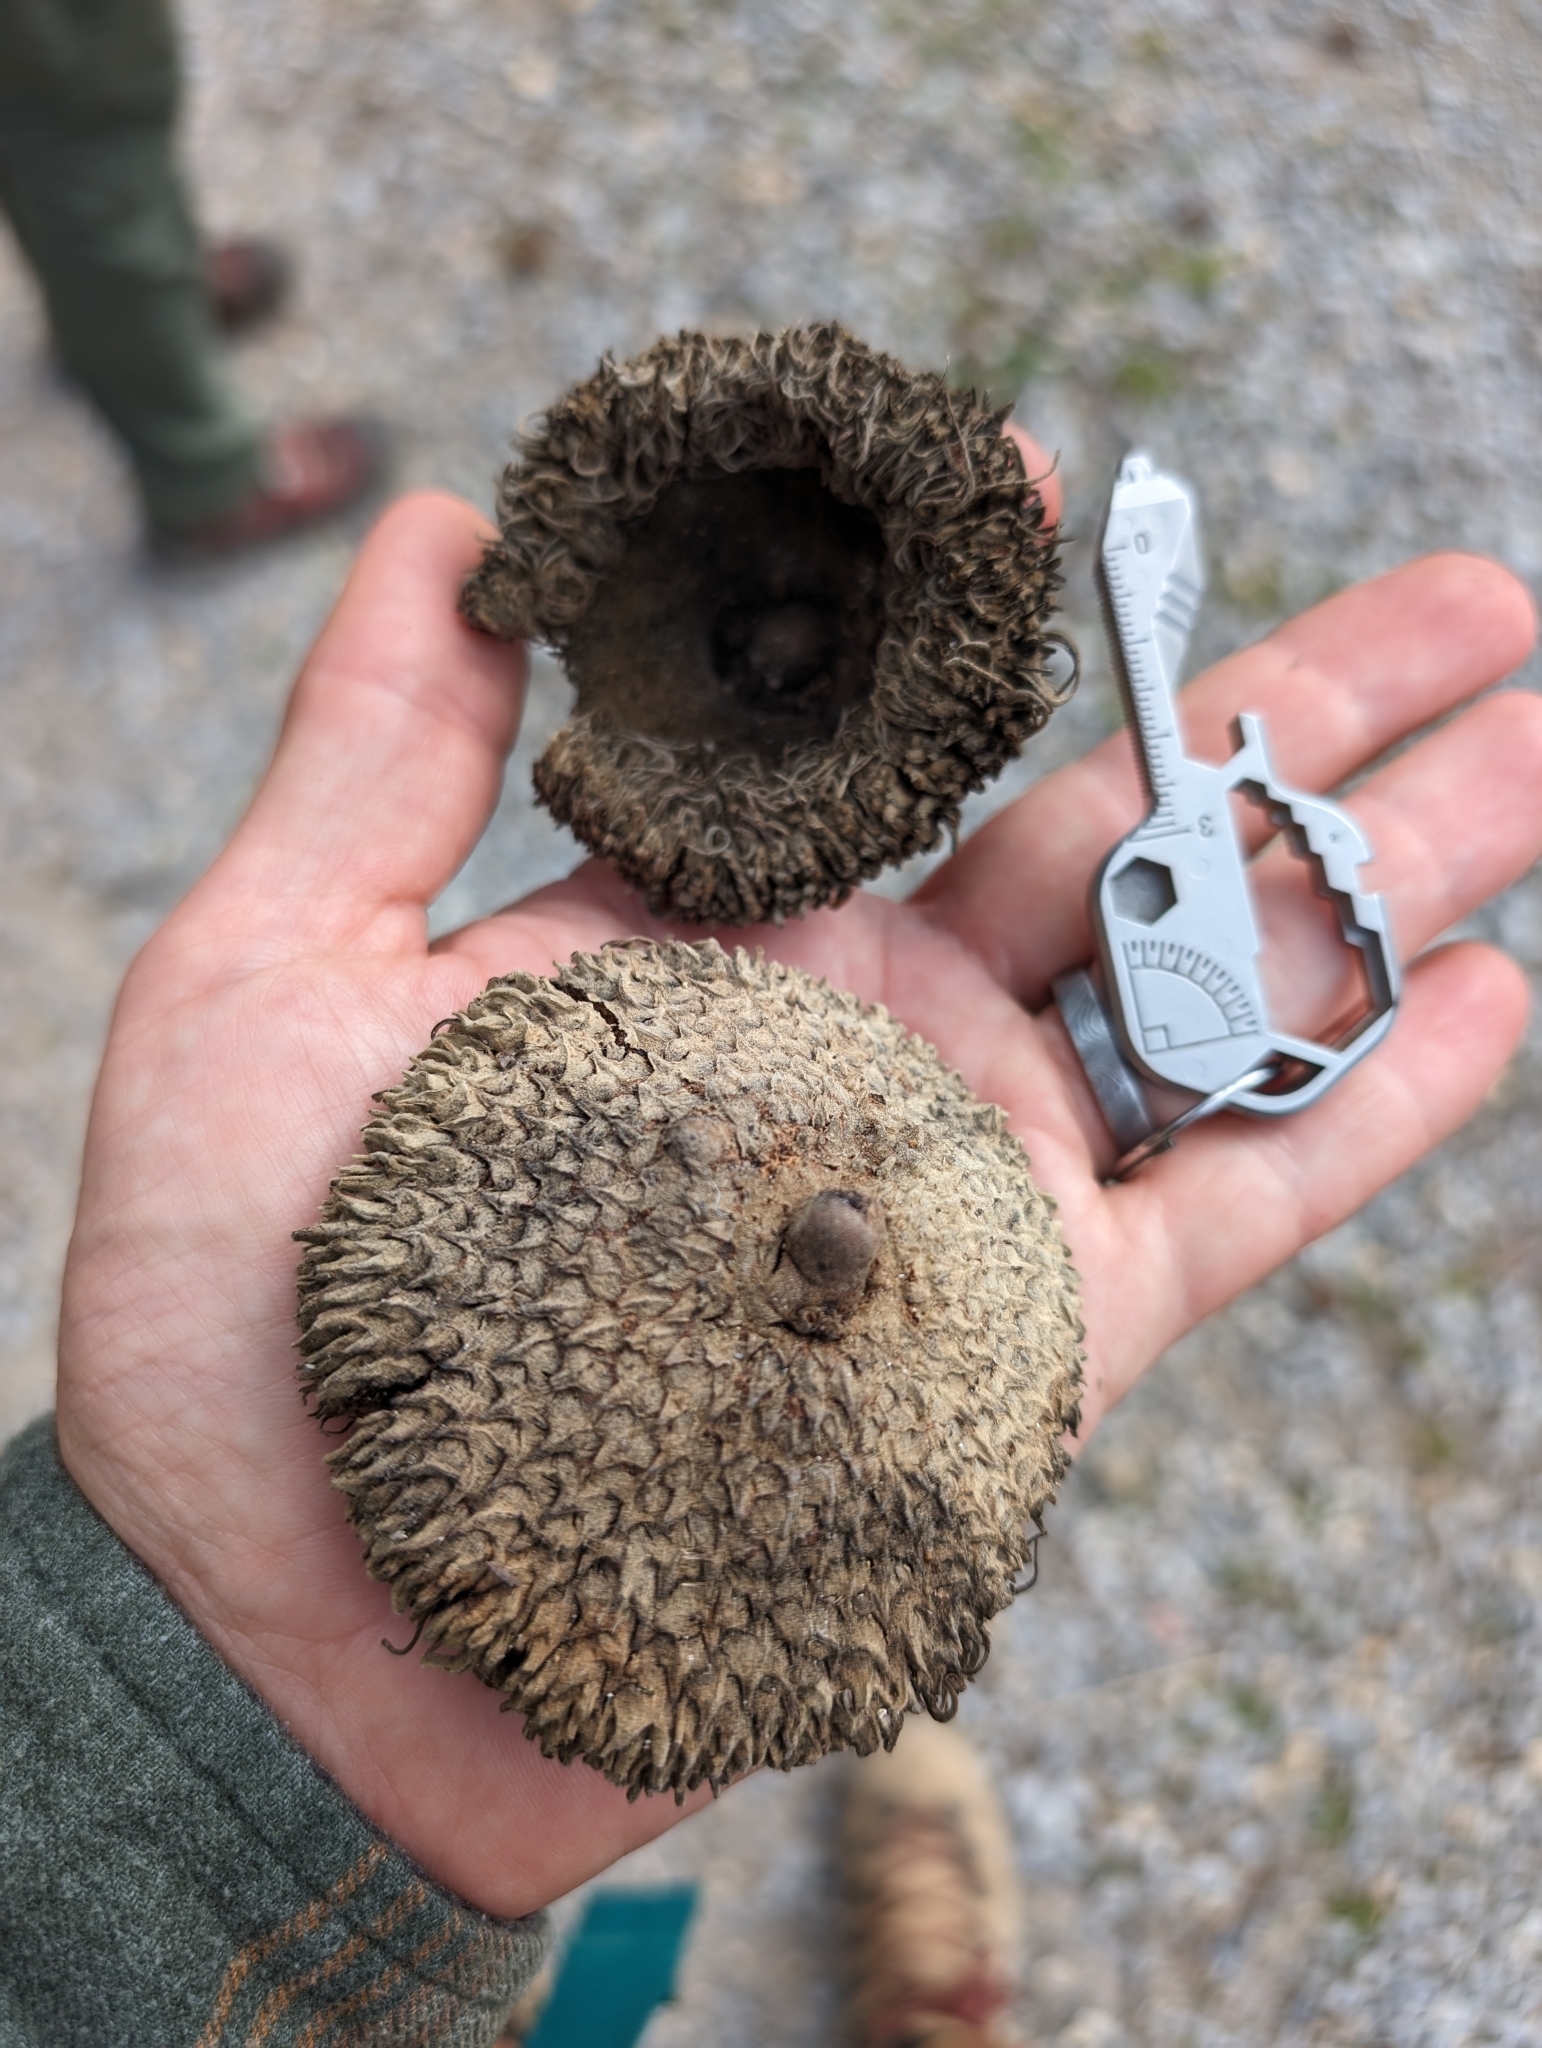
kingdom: Plantae
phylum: Tracheophyta
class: Magnoliopsida
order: Fagales
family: Fagaceae
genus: Quercus
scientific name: Quercus macrocarpa
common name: Bur oak
